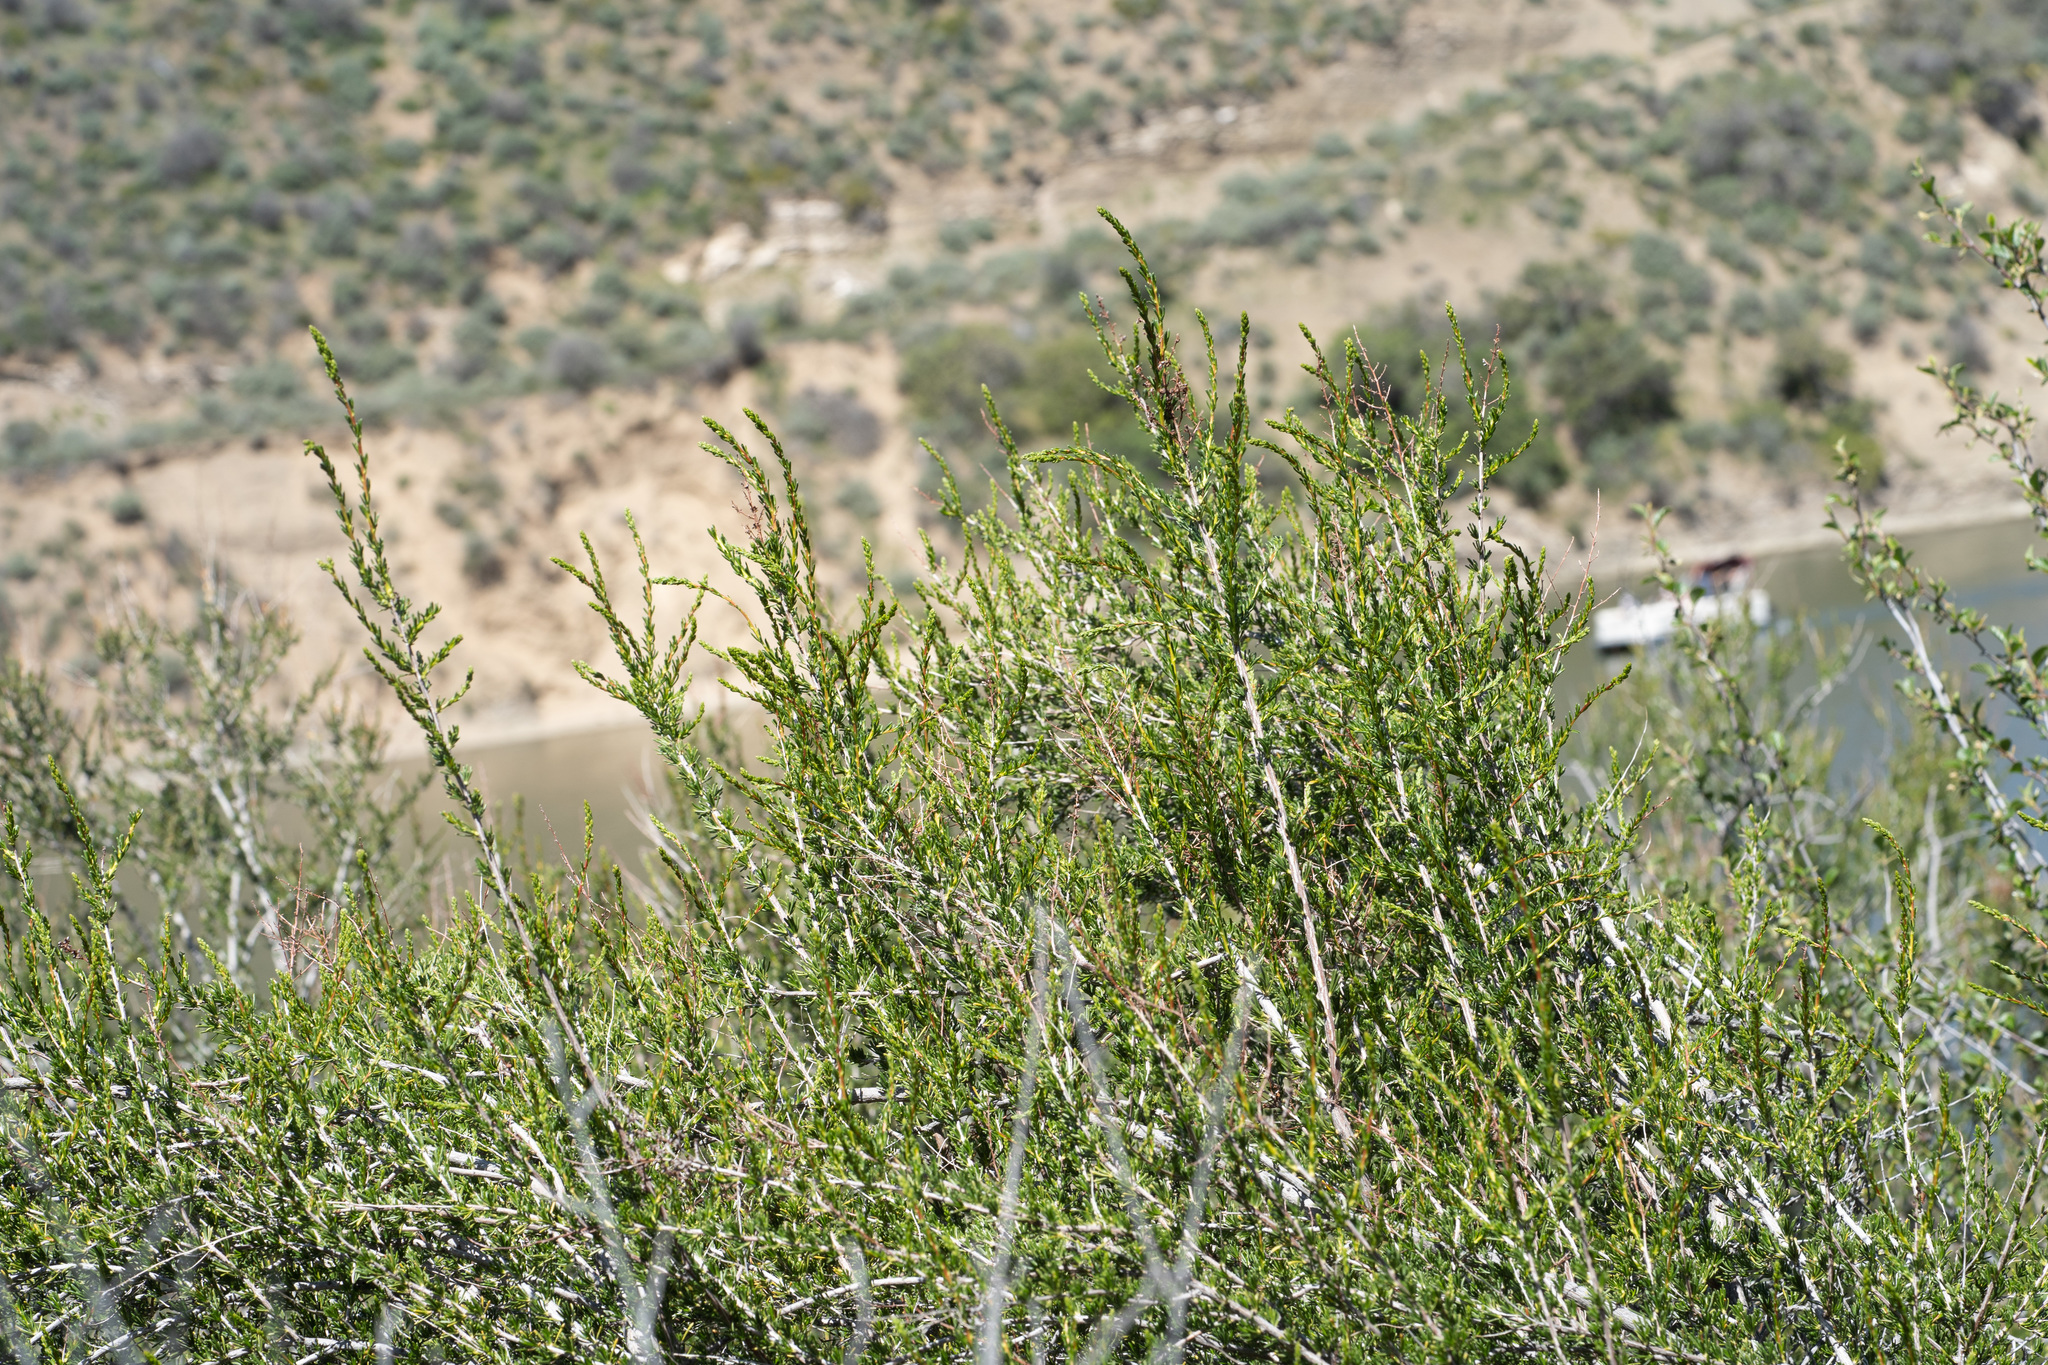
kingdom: Plantae
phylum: Tracheophyta
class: Magnoliopsida
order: Rosales
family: Rosaceae
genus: Adenostoma
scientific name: Adenostoma fasciculatum
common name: Chamise
